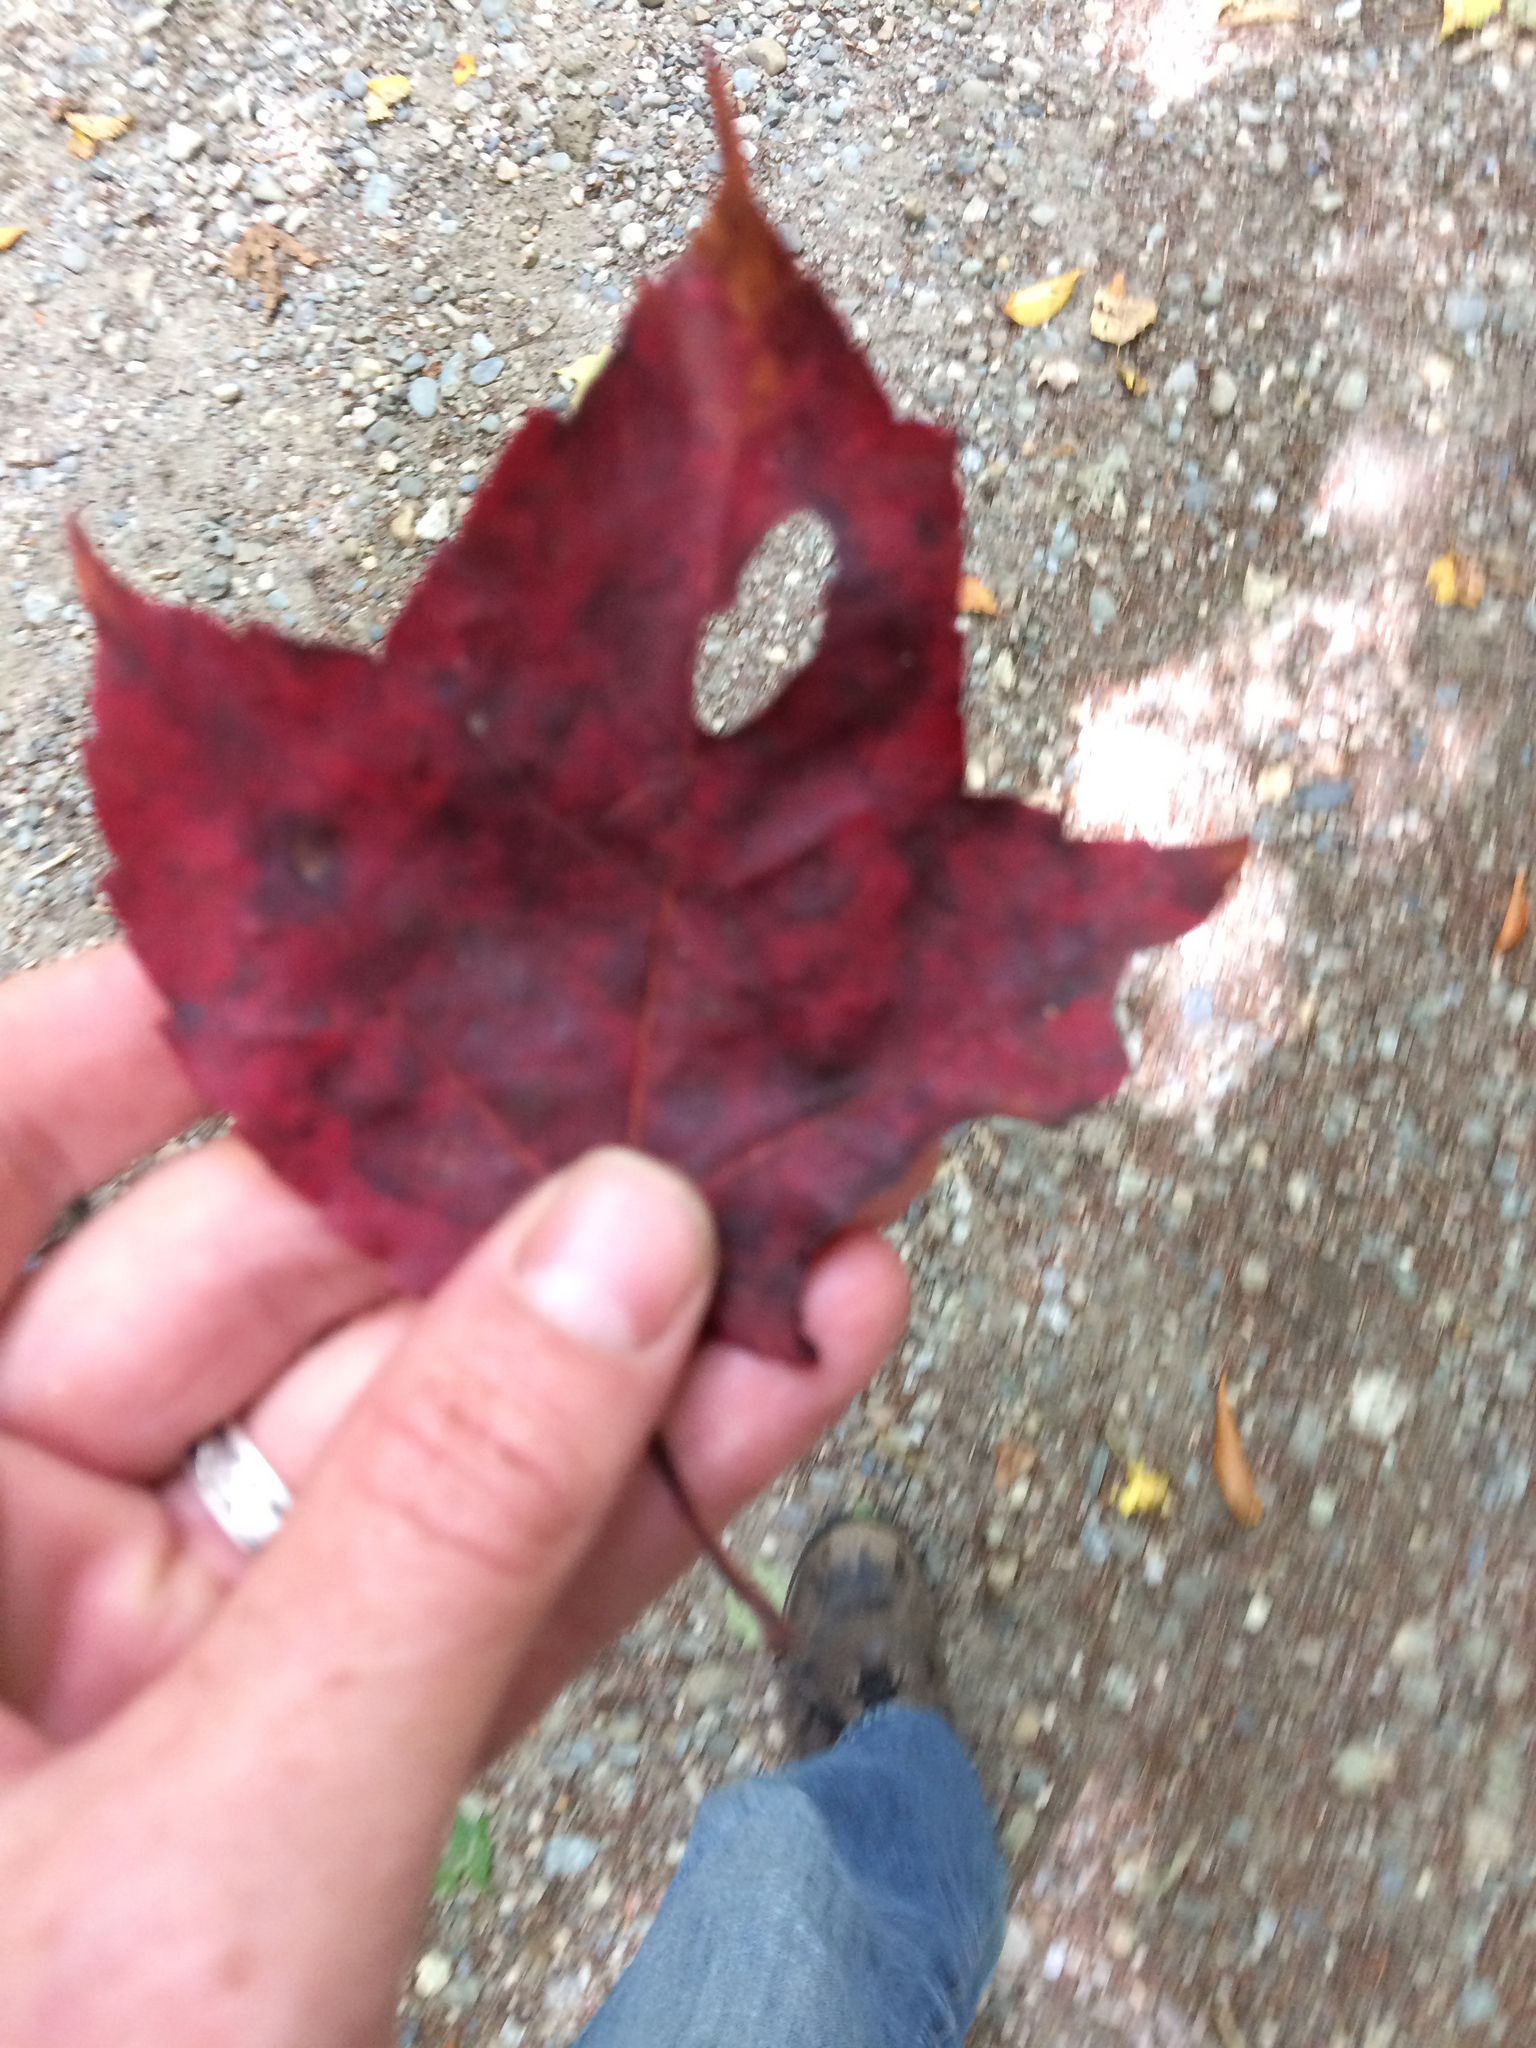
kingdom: Plantae
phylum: Tracheophyta
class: Magnoliopsida
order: Sapindales
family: Sapindaceae
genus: Acer
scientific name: Acer rubrum
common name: Red maple
